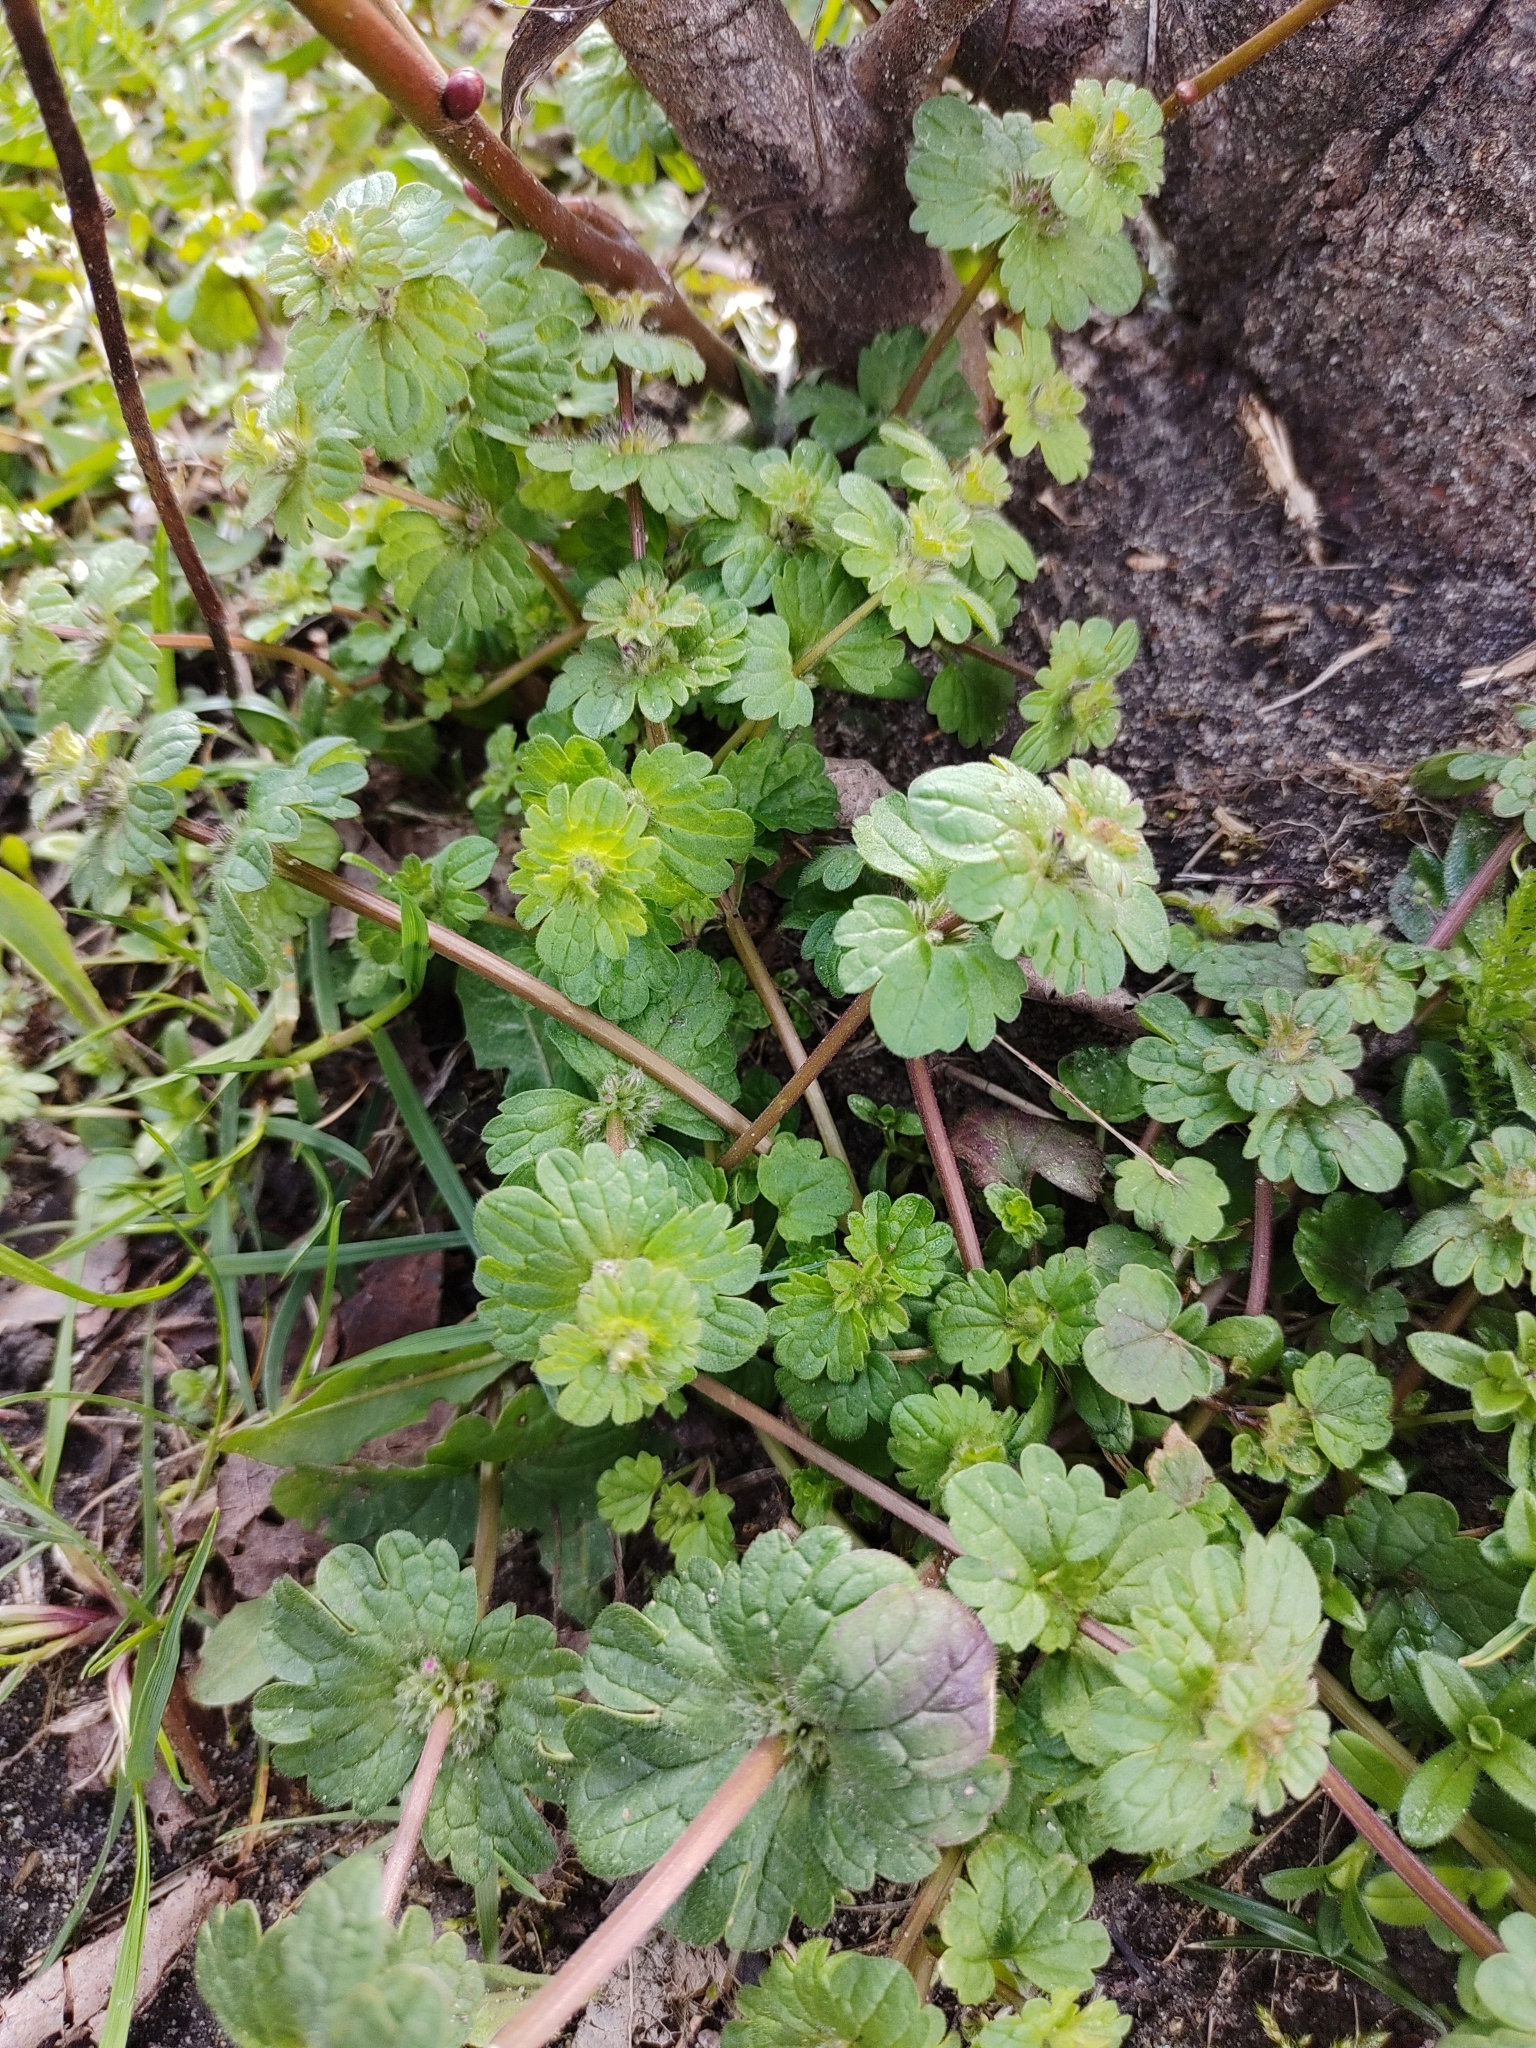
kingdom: Plantae
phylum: Tracheophyta
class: Magnoliopsida
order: Lamiales
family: Lamiaceae
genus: Lamium
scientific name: Lamium amplexicaule
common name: Henbit dead-nettle
